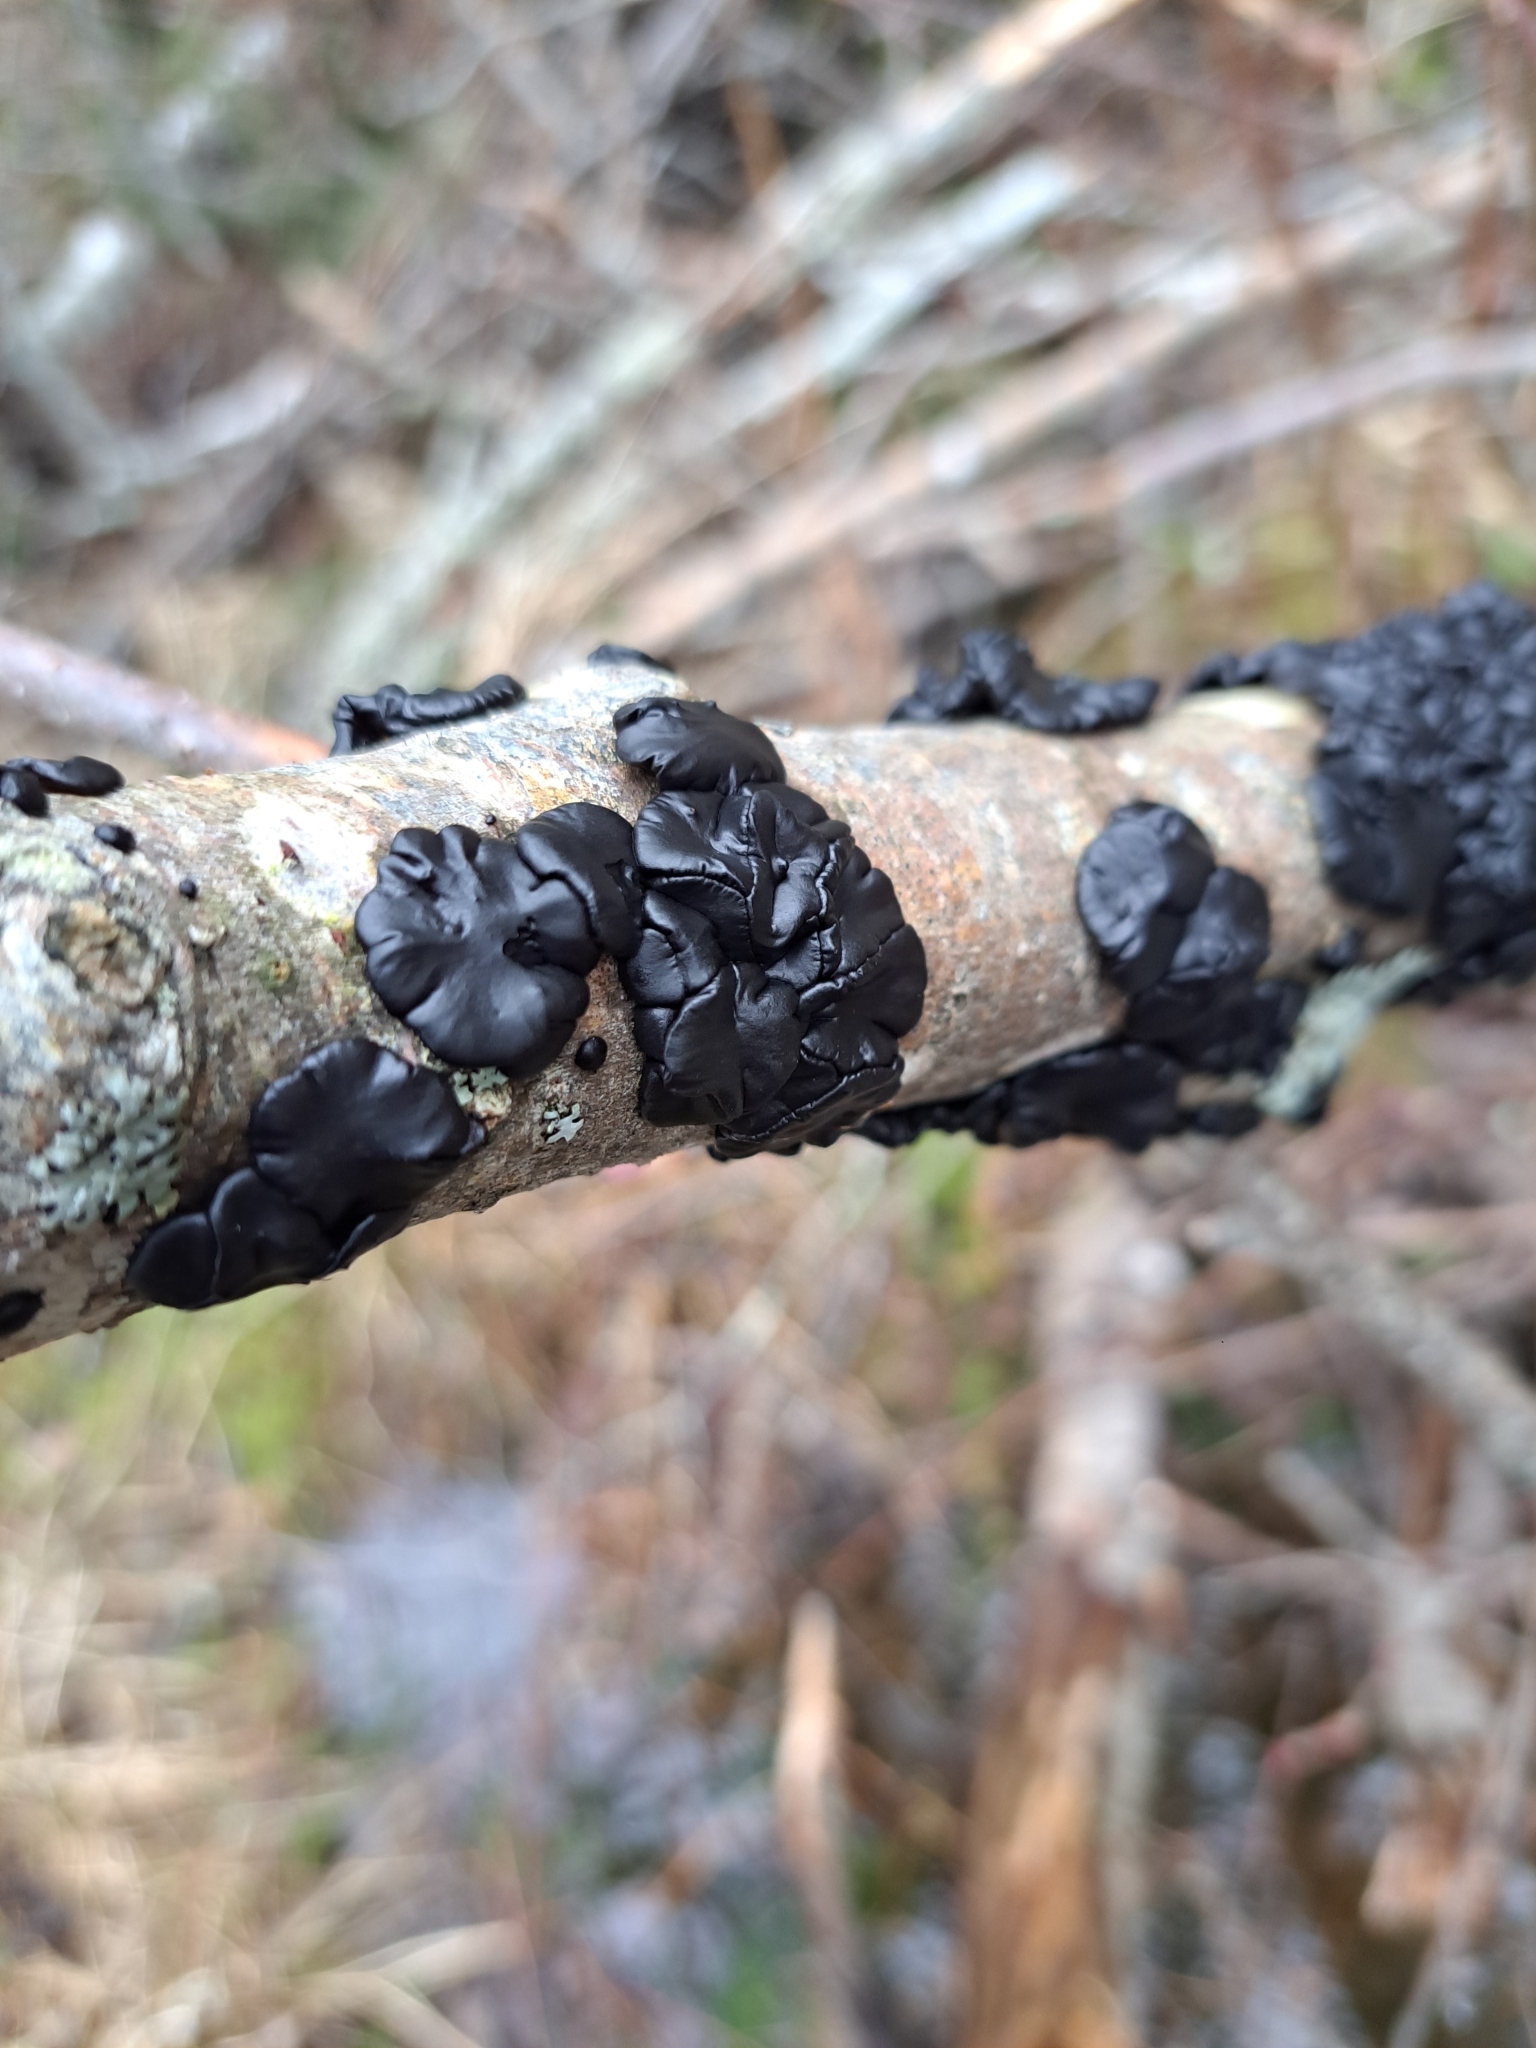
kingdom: Fungi
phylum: Basidiomycota
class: Agaricomycetes
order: Auriculariales
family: Auriculariaceae
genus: Exidia
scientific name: Exidia glandulosa
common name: Witches' butter
